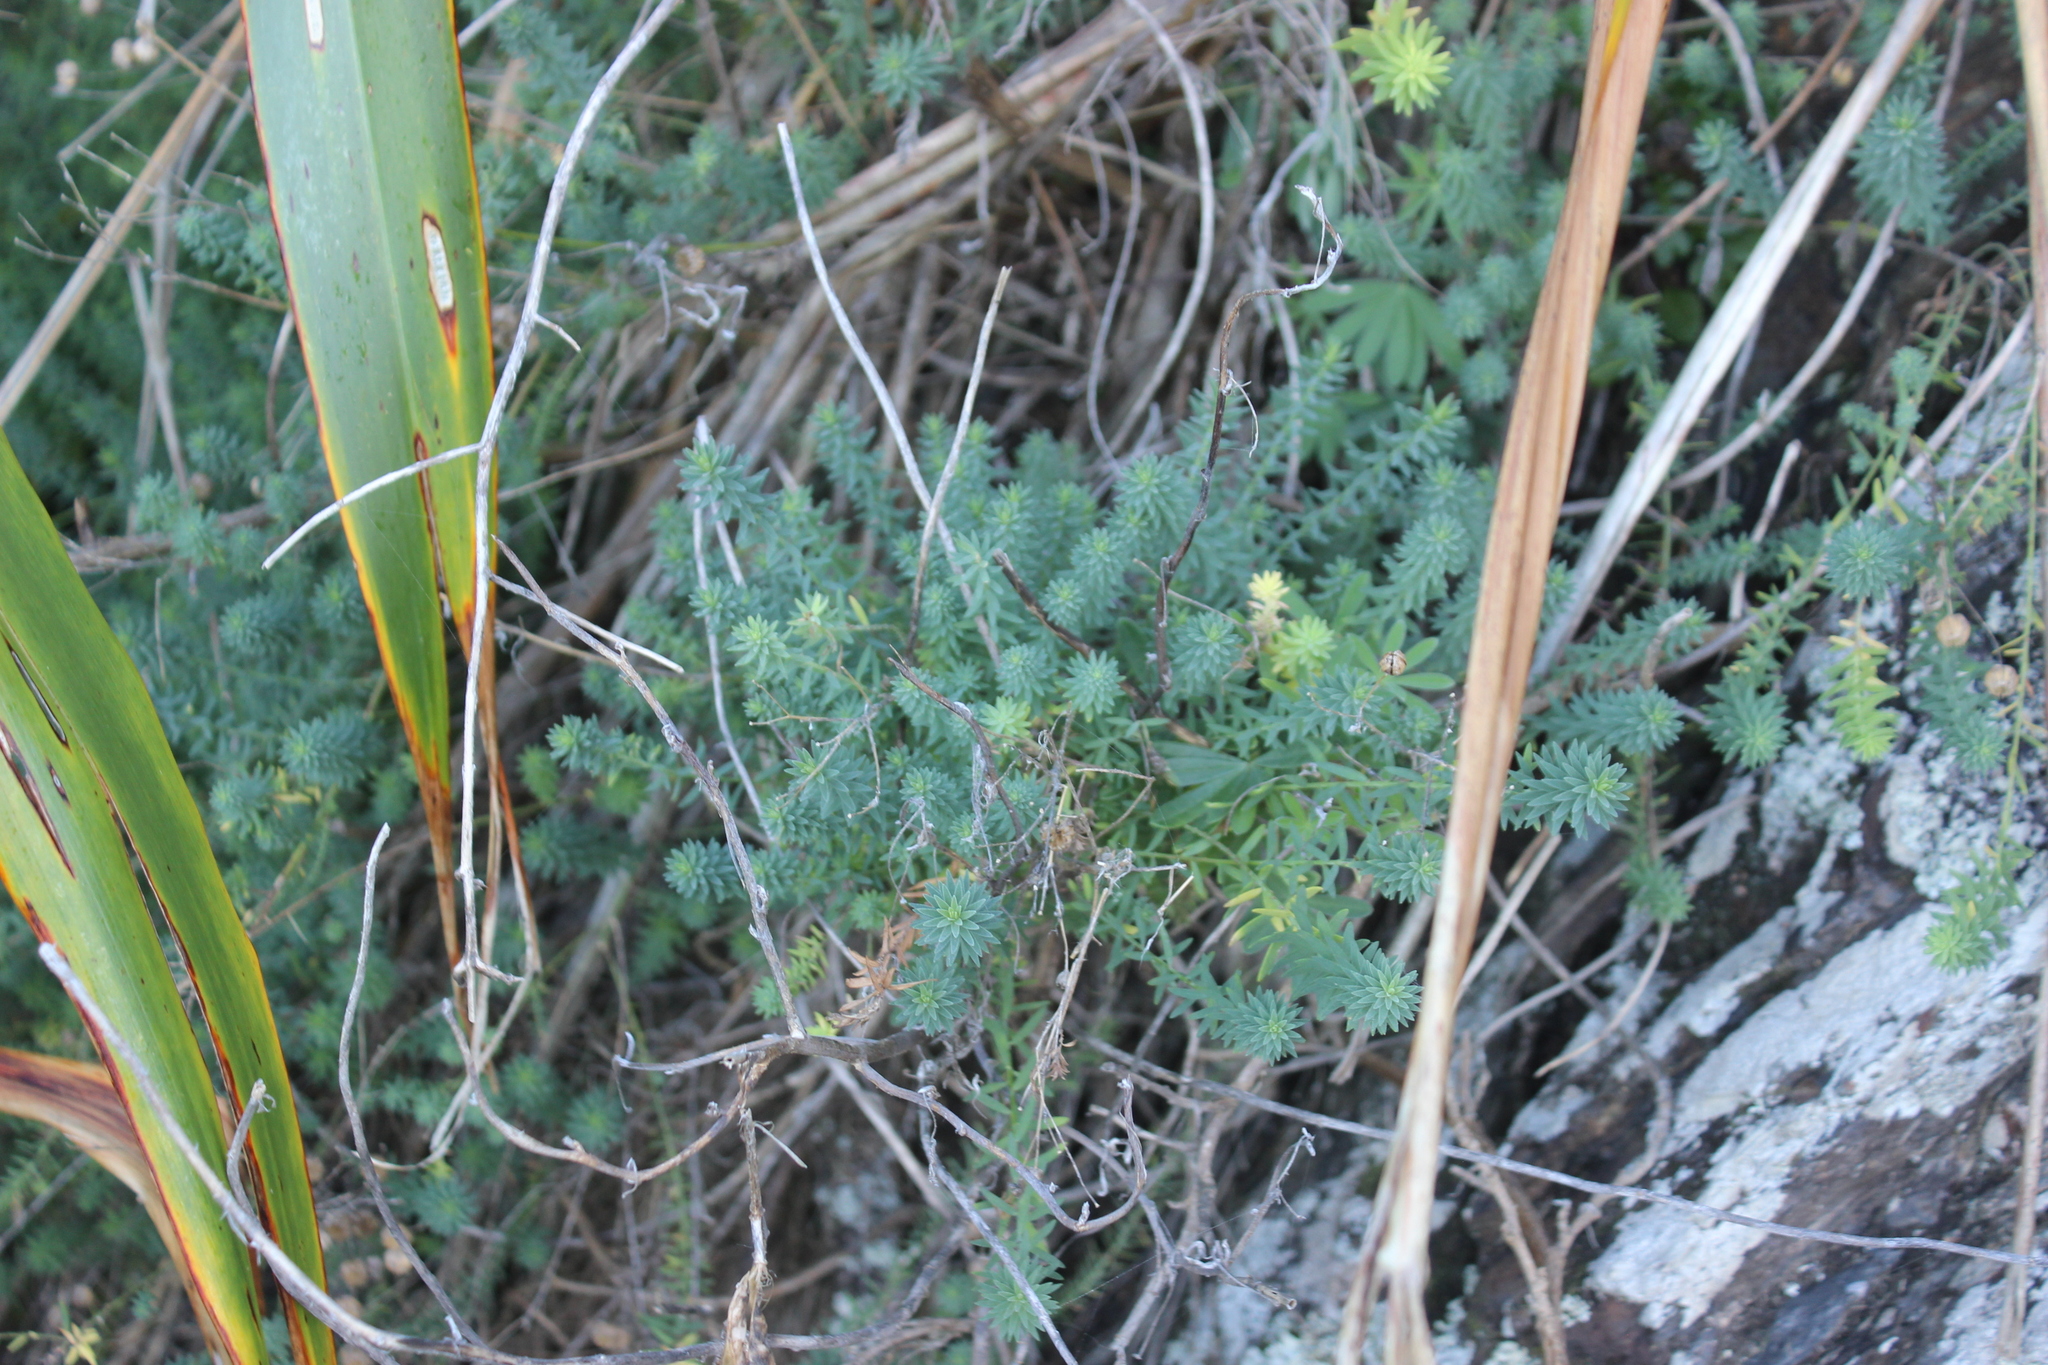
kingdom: Plantae
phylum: Tracheophyta
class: Magnoliopsida
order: Malpighiales
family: Linaceae
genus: Linum
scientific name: Linum monogynum
